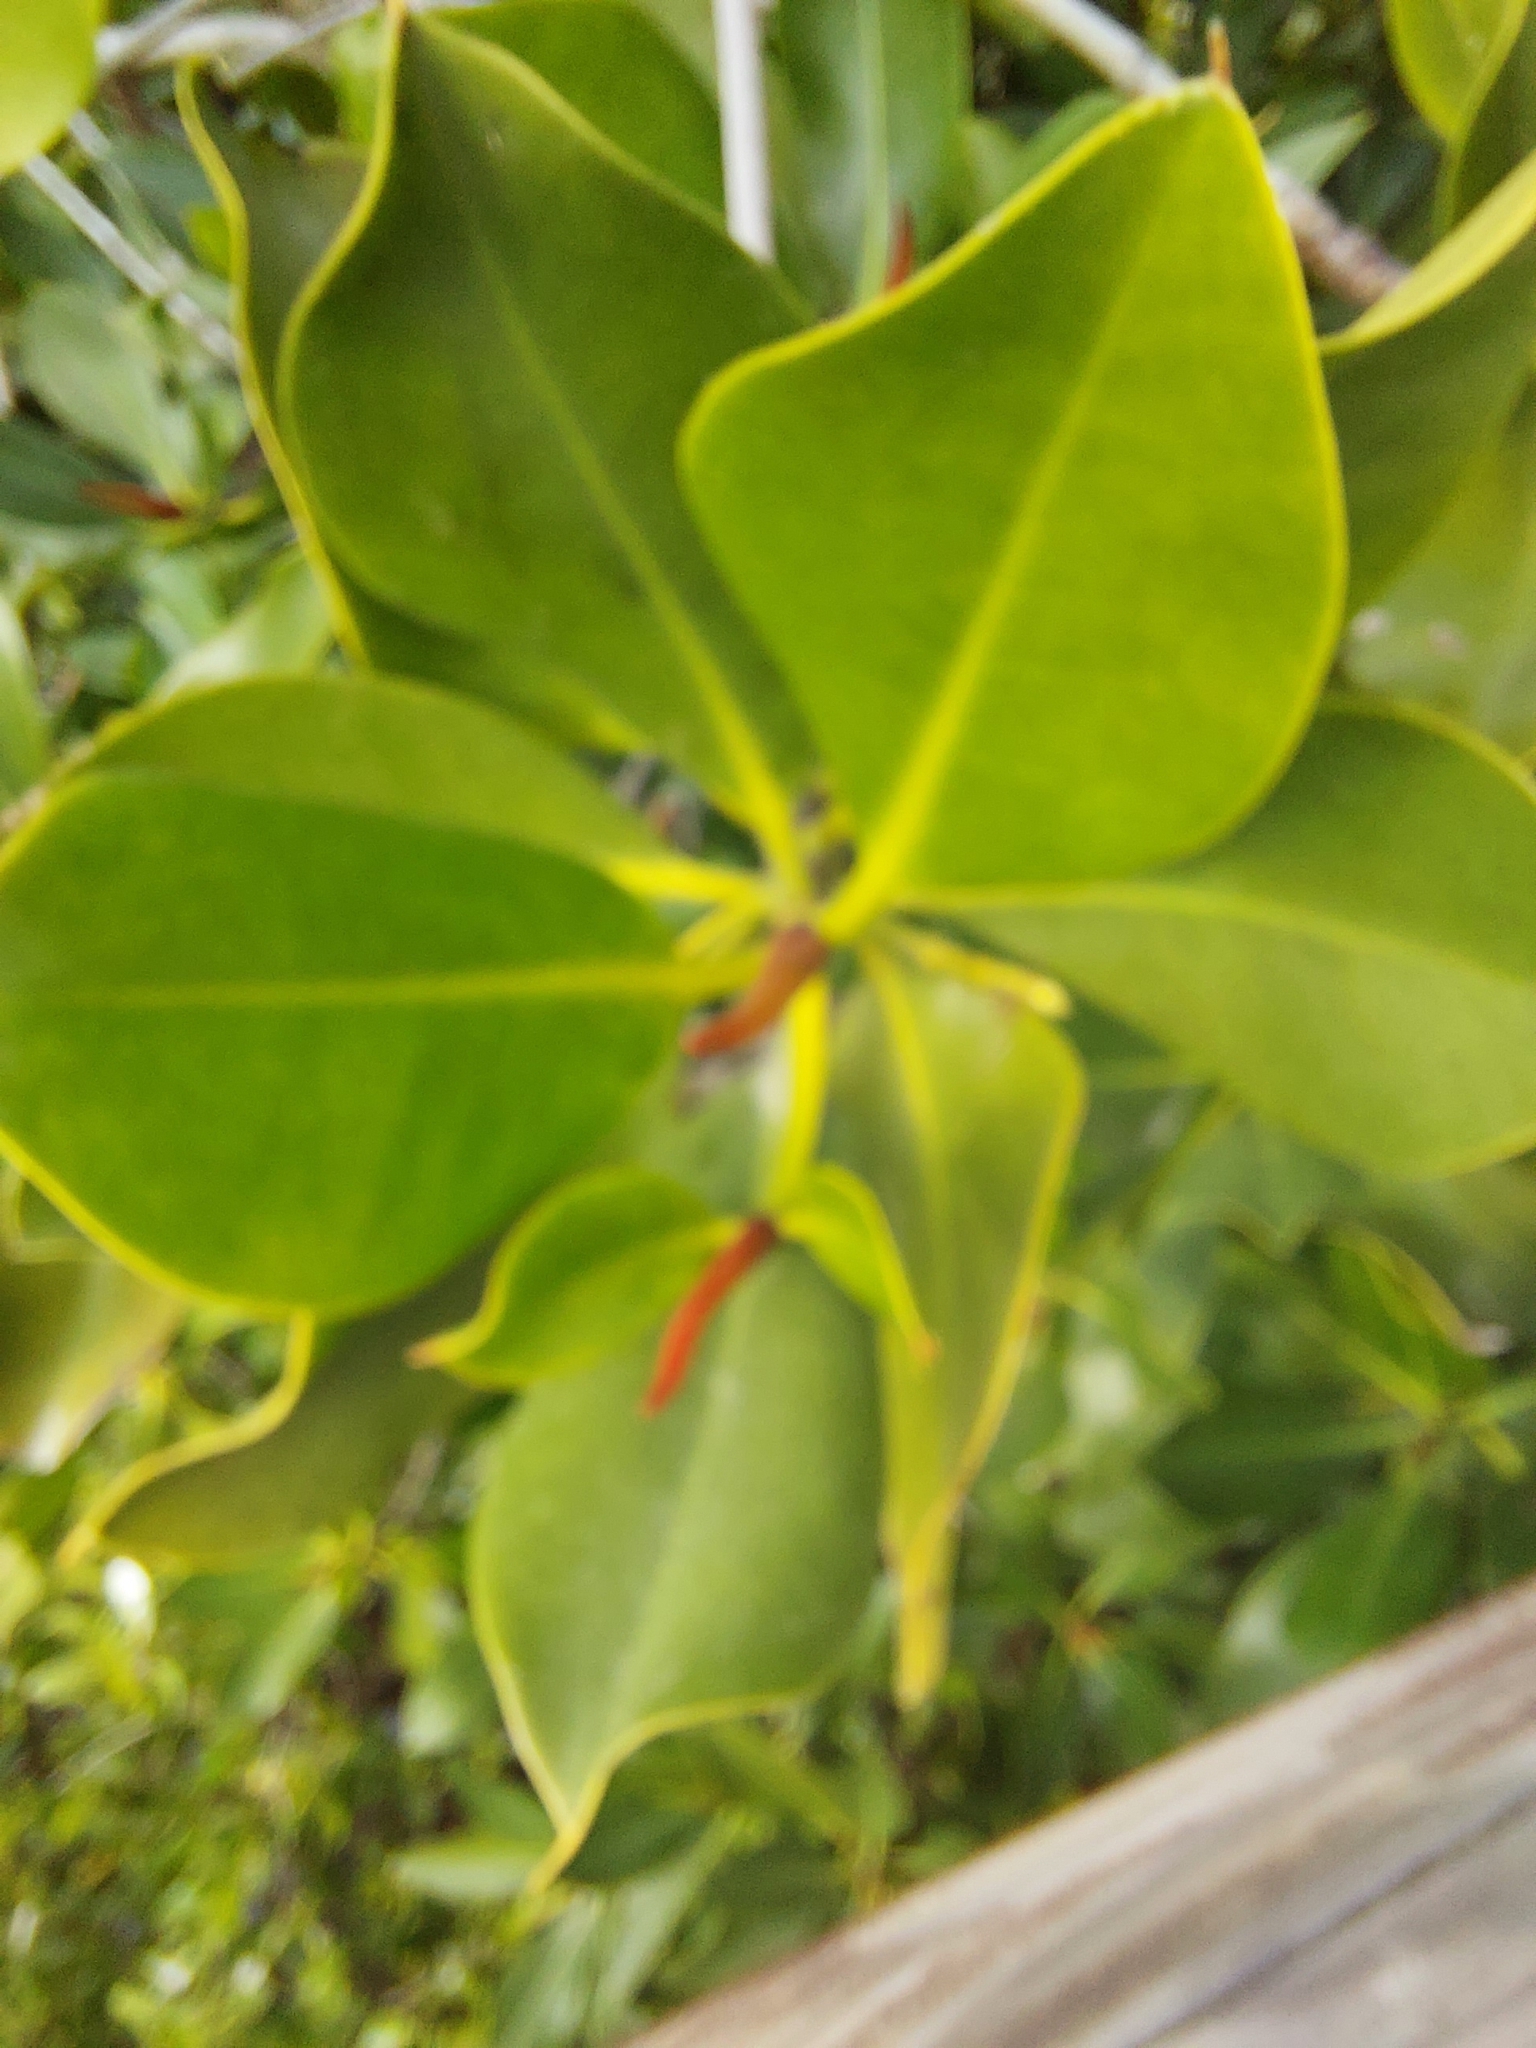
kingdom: Plantae
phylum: Tracheophyta
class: Magnoliopsida
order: Malpighiales
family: Rhizophoraceae
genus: Rhizophora
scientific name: Rhizophora stylosa
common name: Red mangrove
